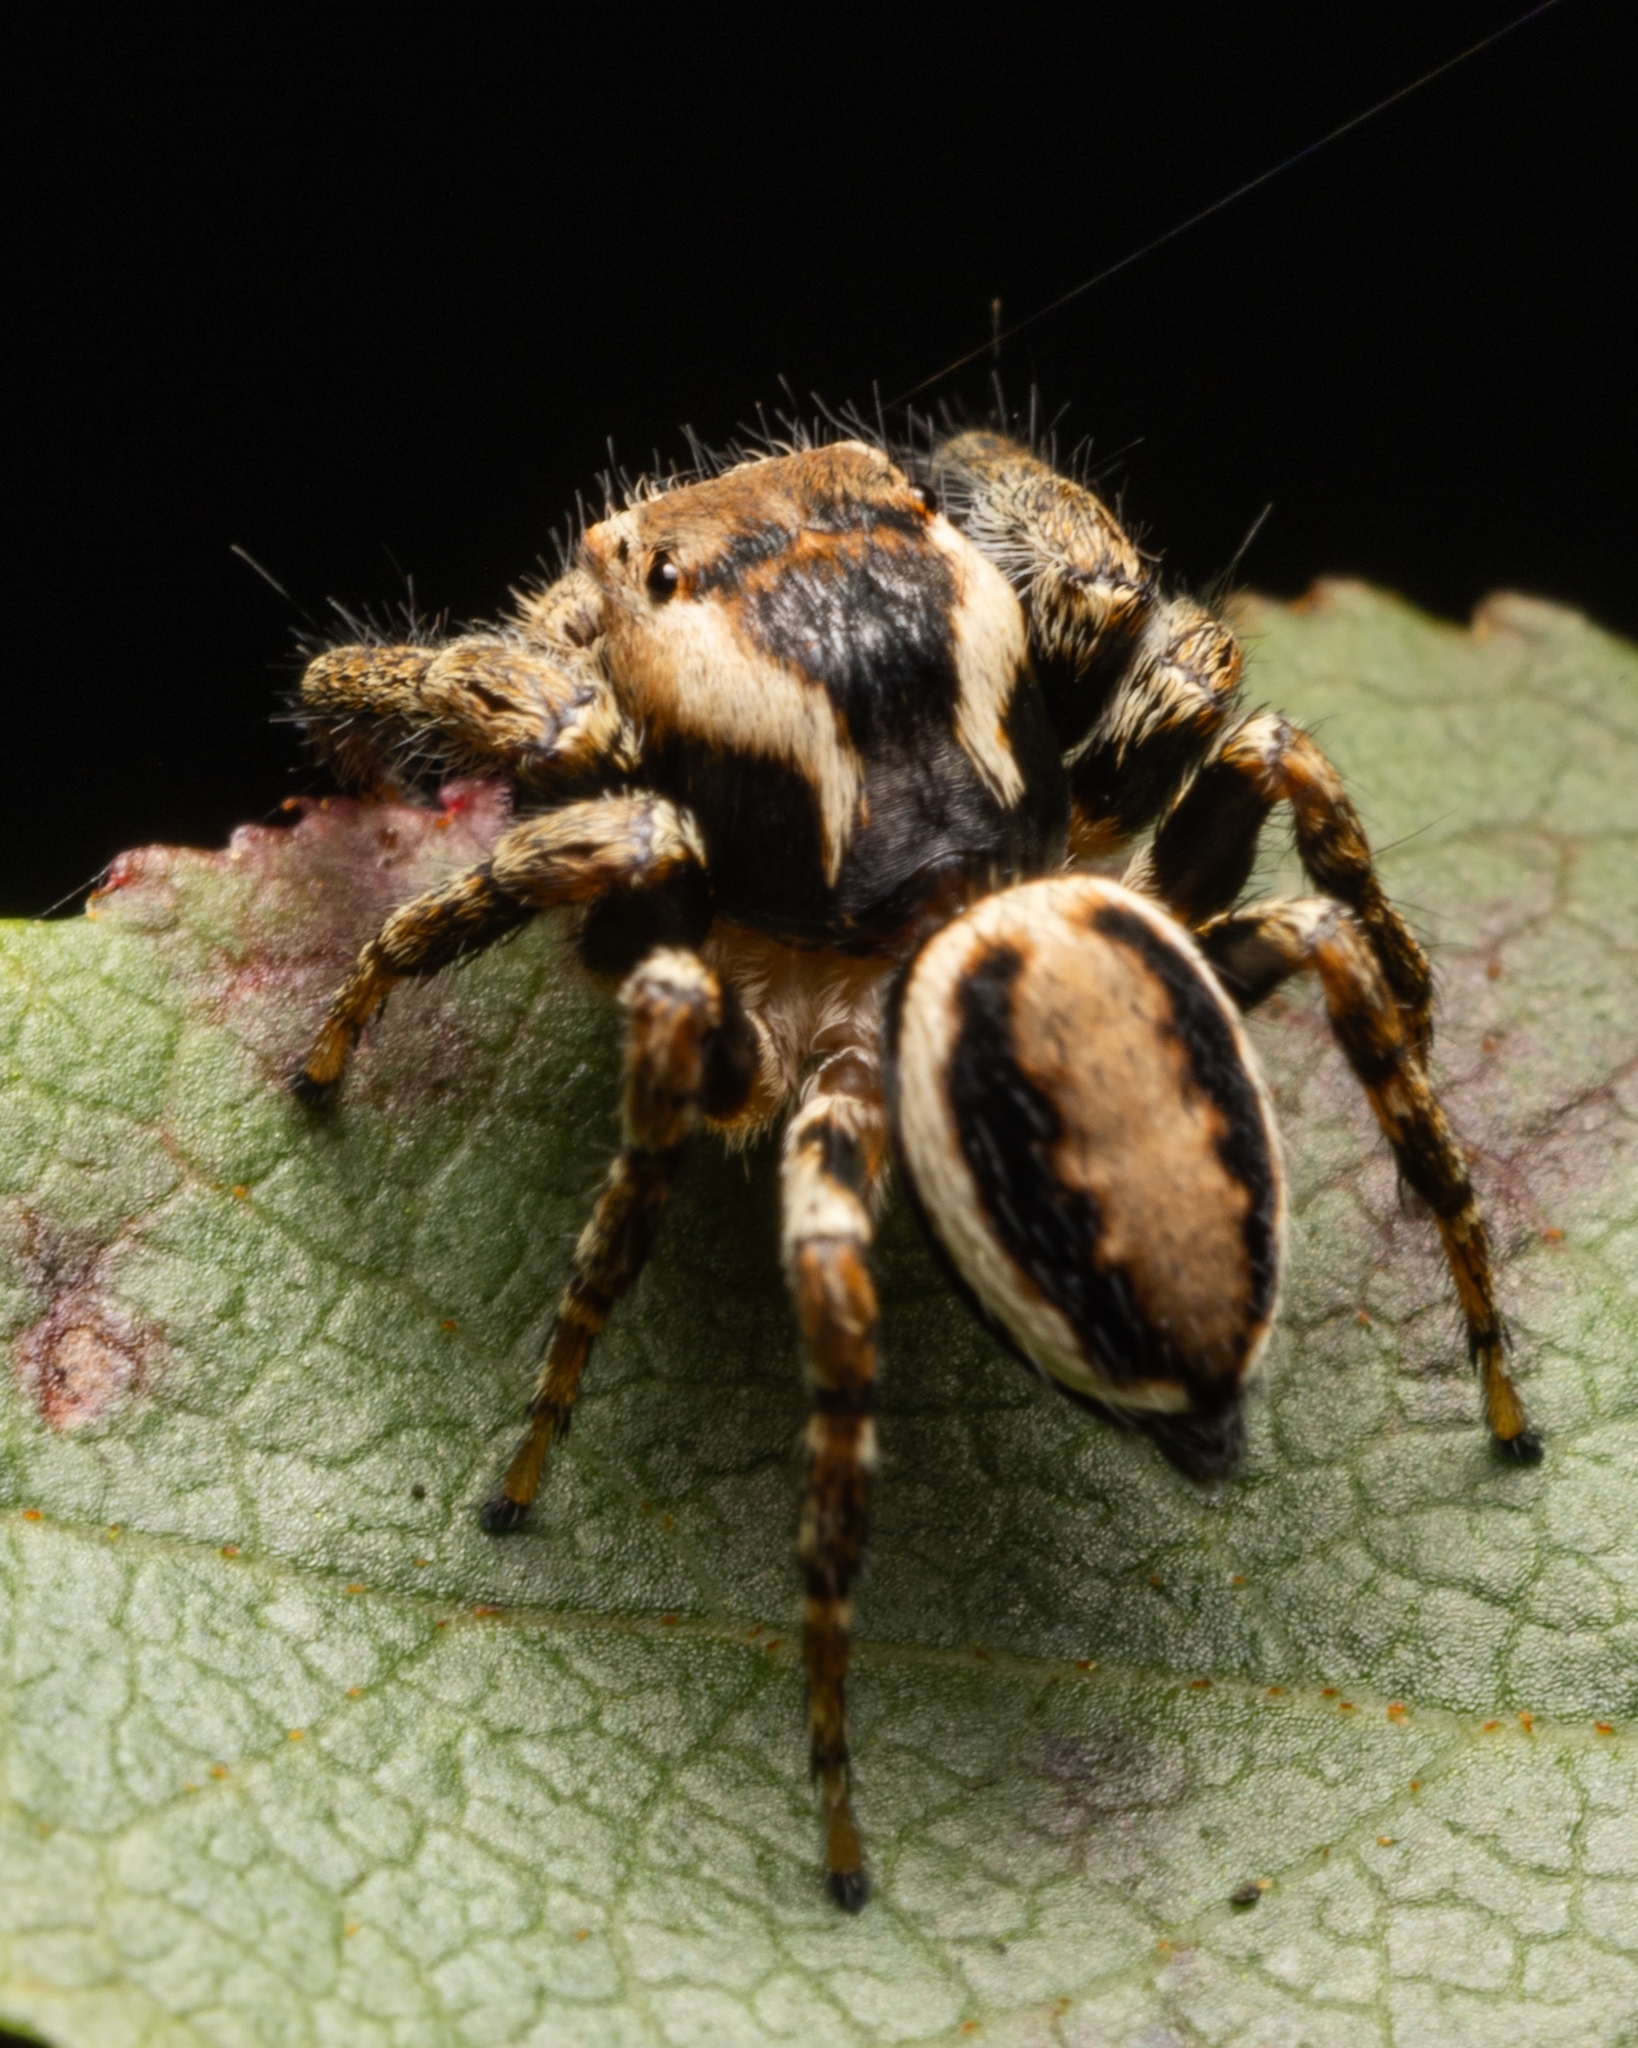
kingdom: Animalia
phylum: Arthropoda
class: Arachnida
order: Araneae
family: Salticidae
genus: Evarcha
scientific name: Evarcha falcata
